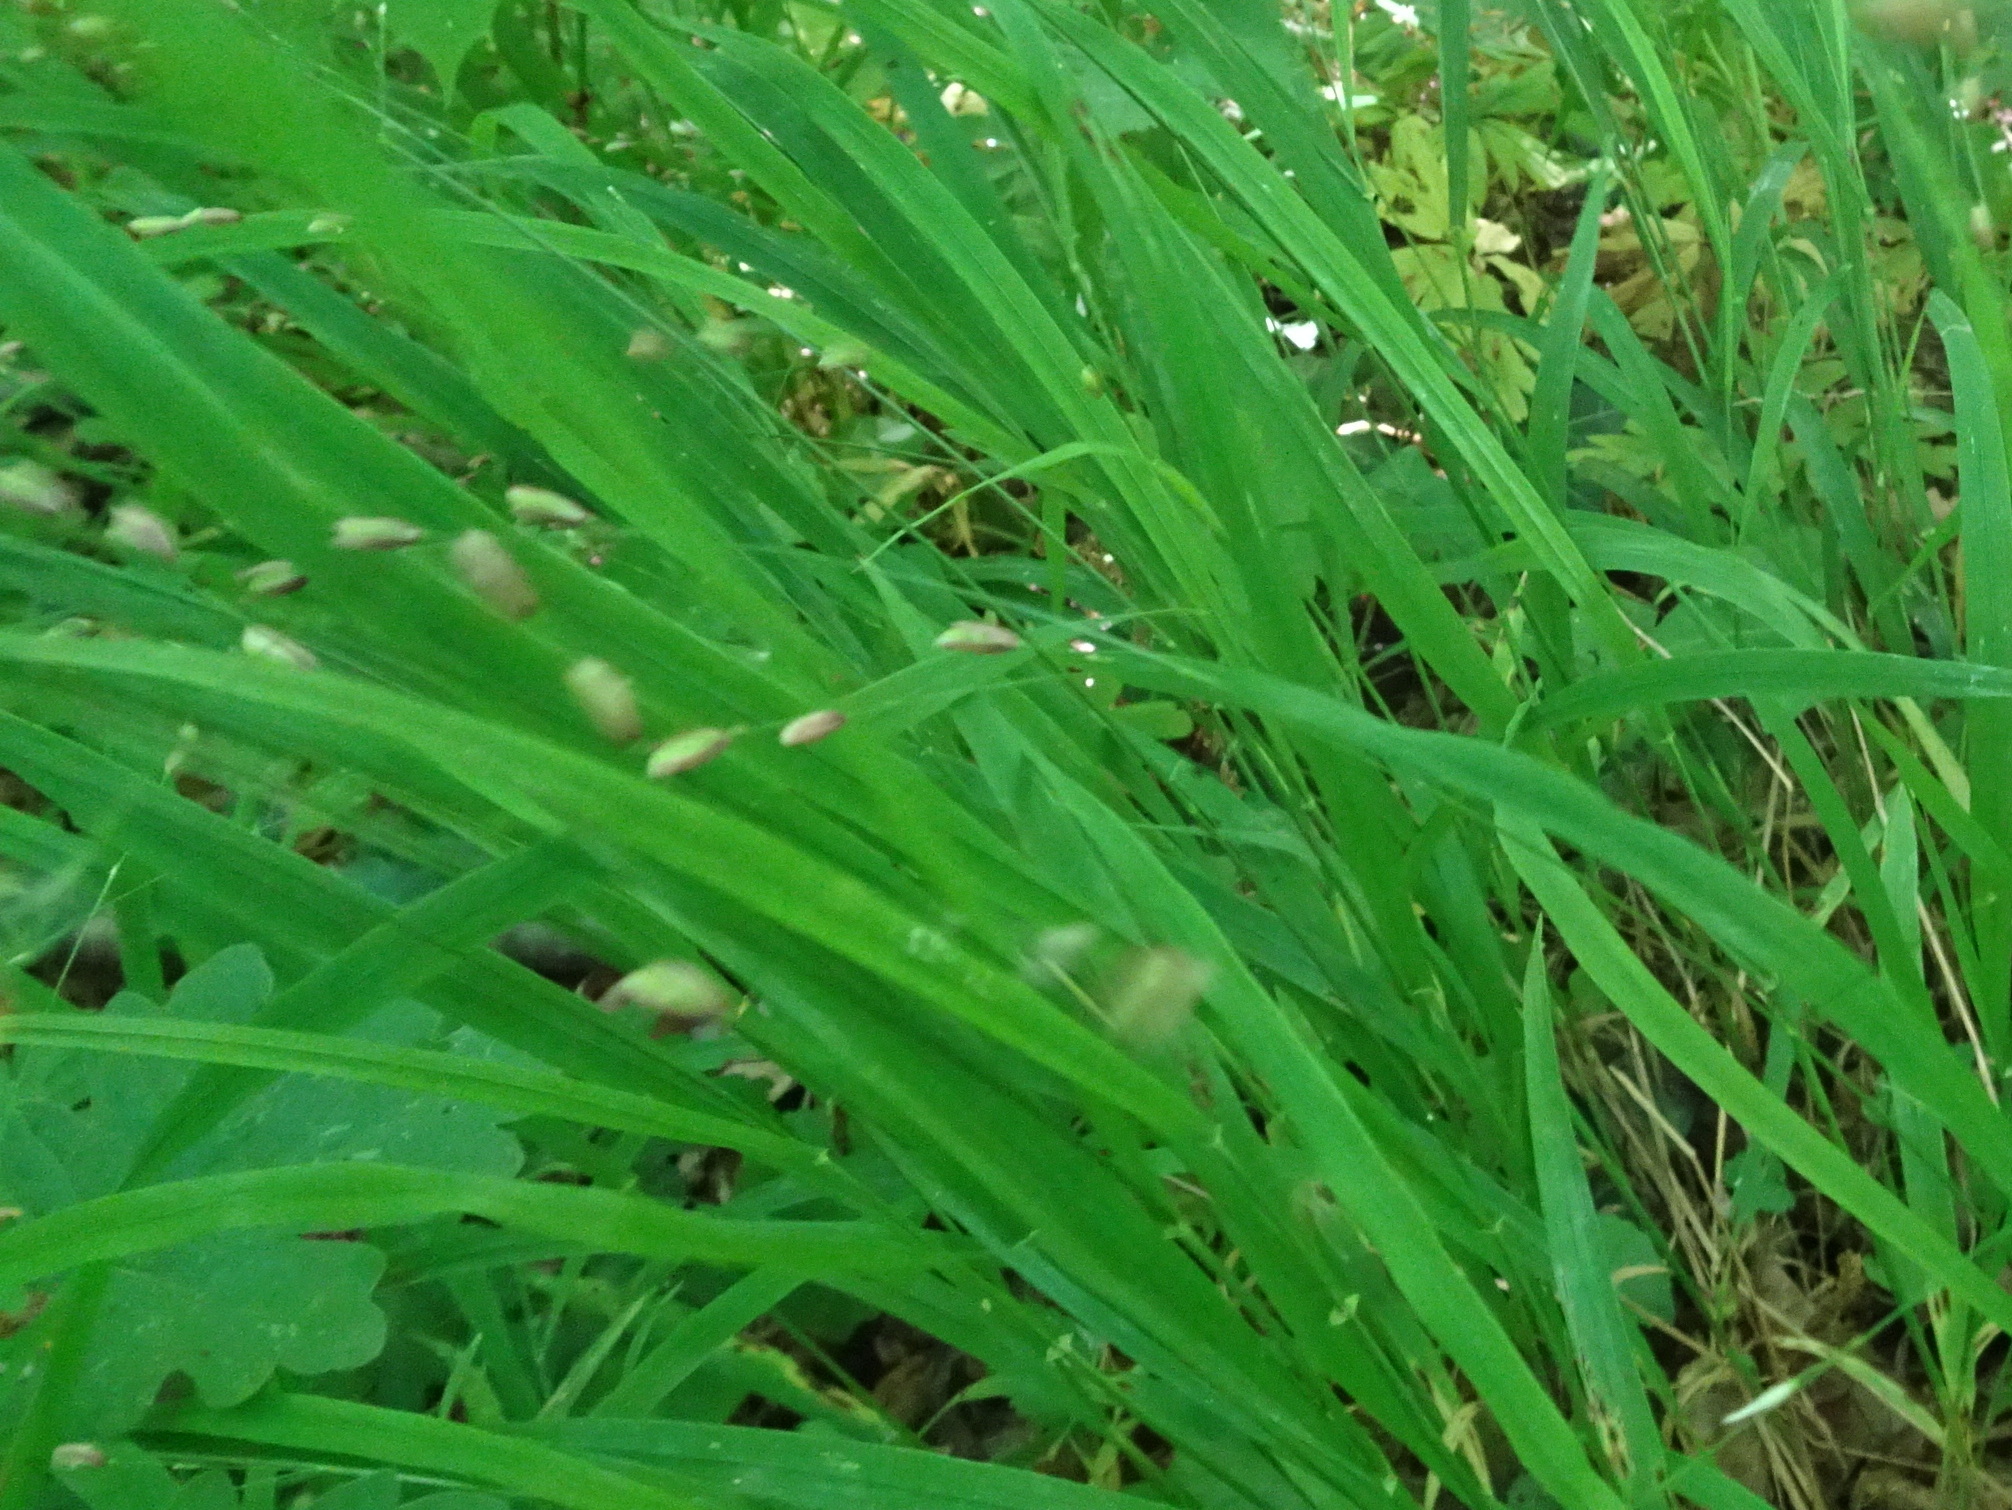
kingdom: Plantae
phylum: Tracheophyta
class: Liliopsida
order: Poales
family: Poaceae
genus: Melica
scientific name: Melica uniflora
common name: Wood melick
